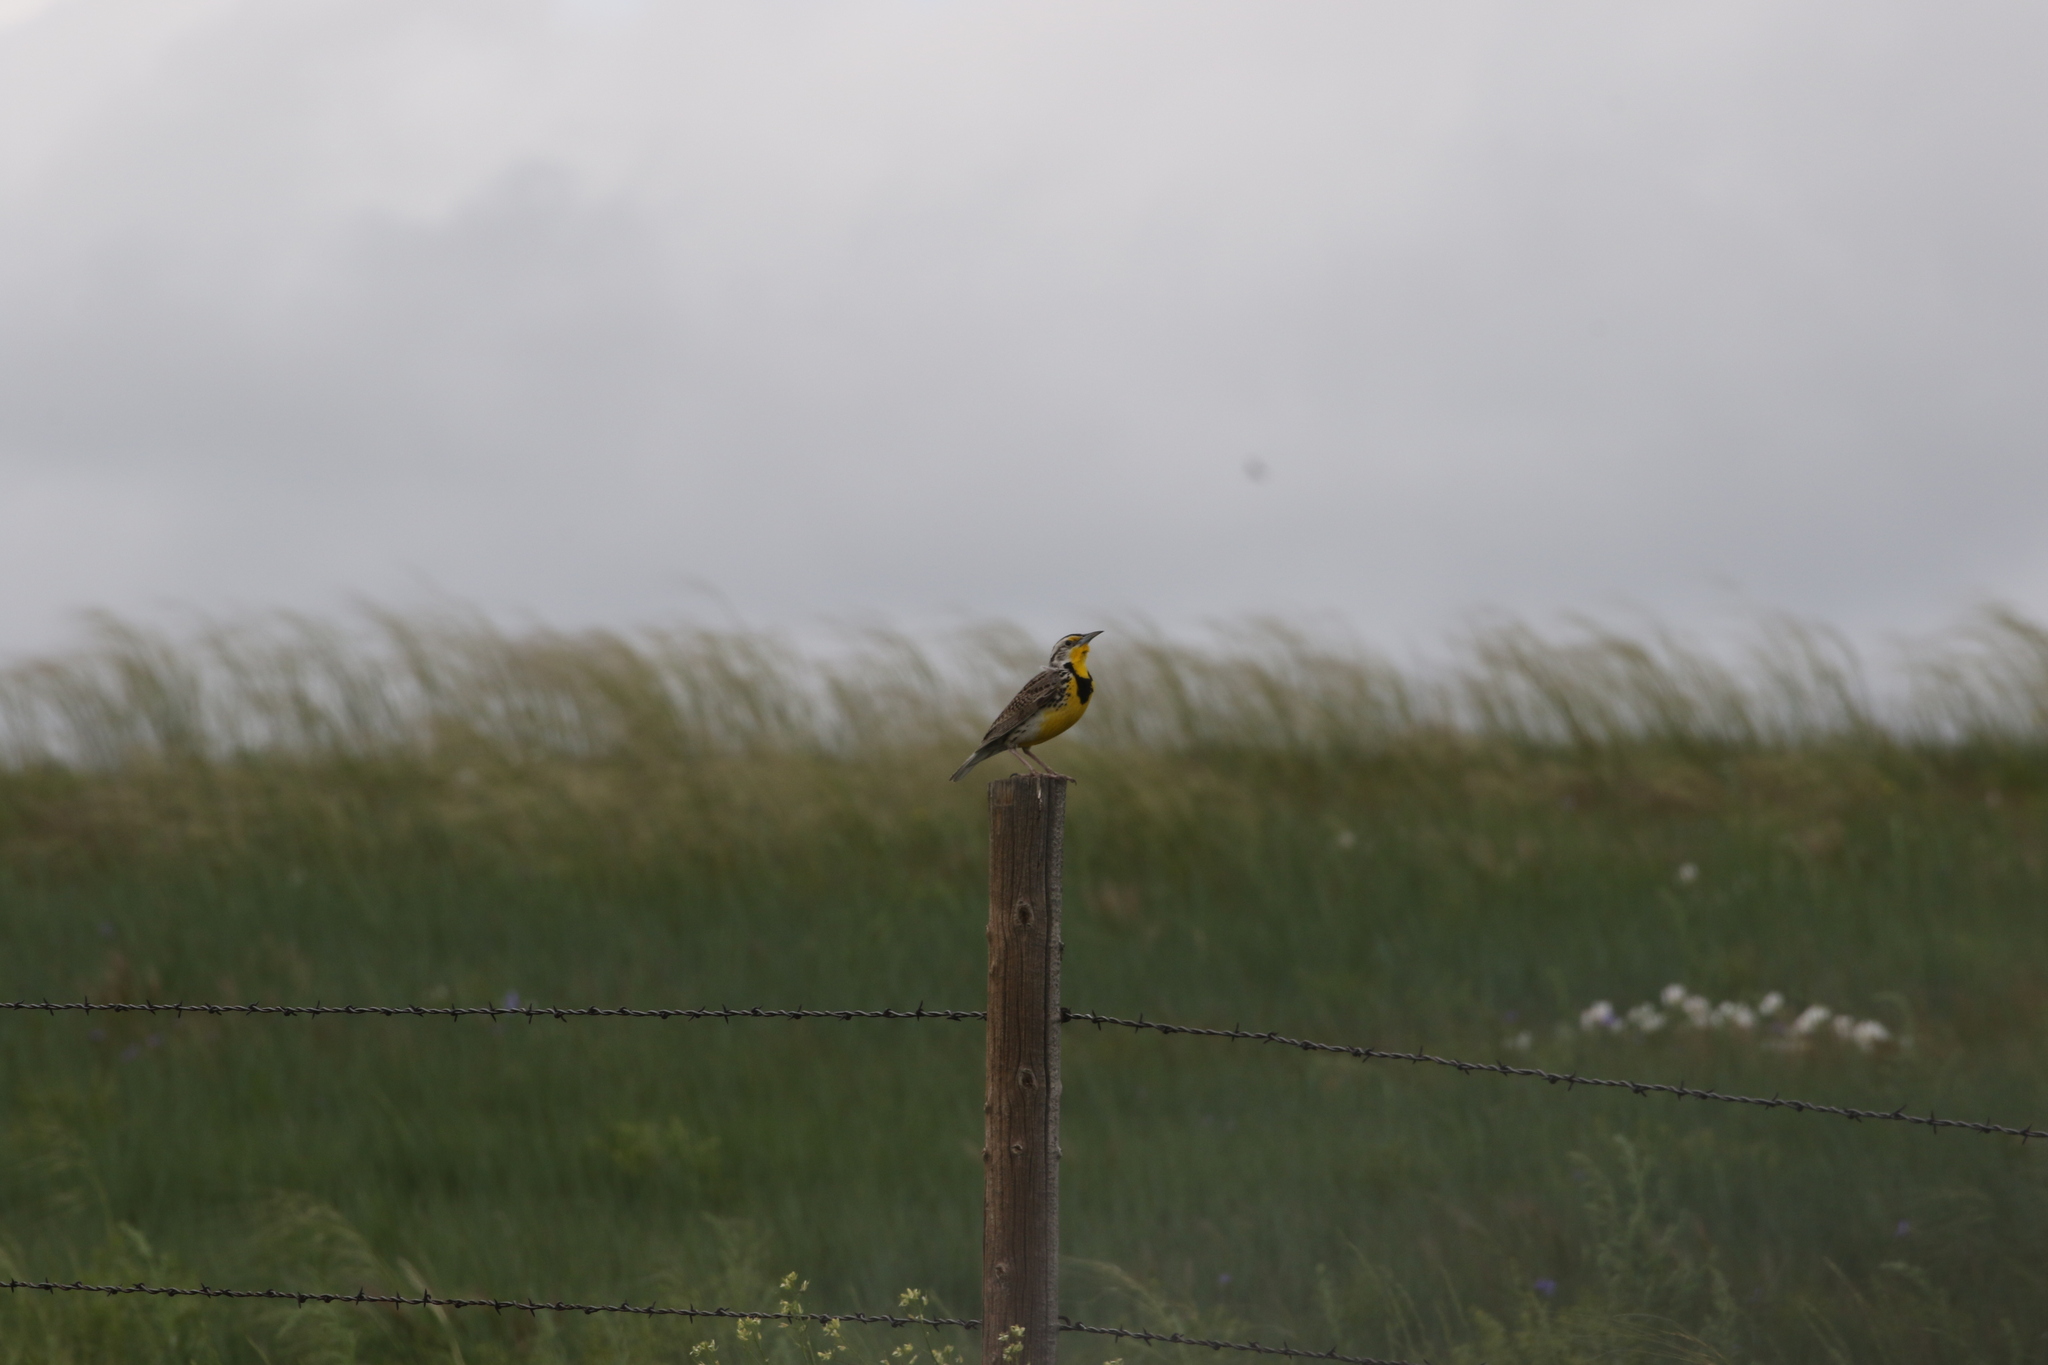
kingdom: Animalia
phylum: Chordata
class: Aves
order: Passeriformes
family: Icteridae
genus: Sturnella
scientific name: Sturnella neglecta
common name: Western meadowlark
